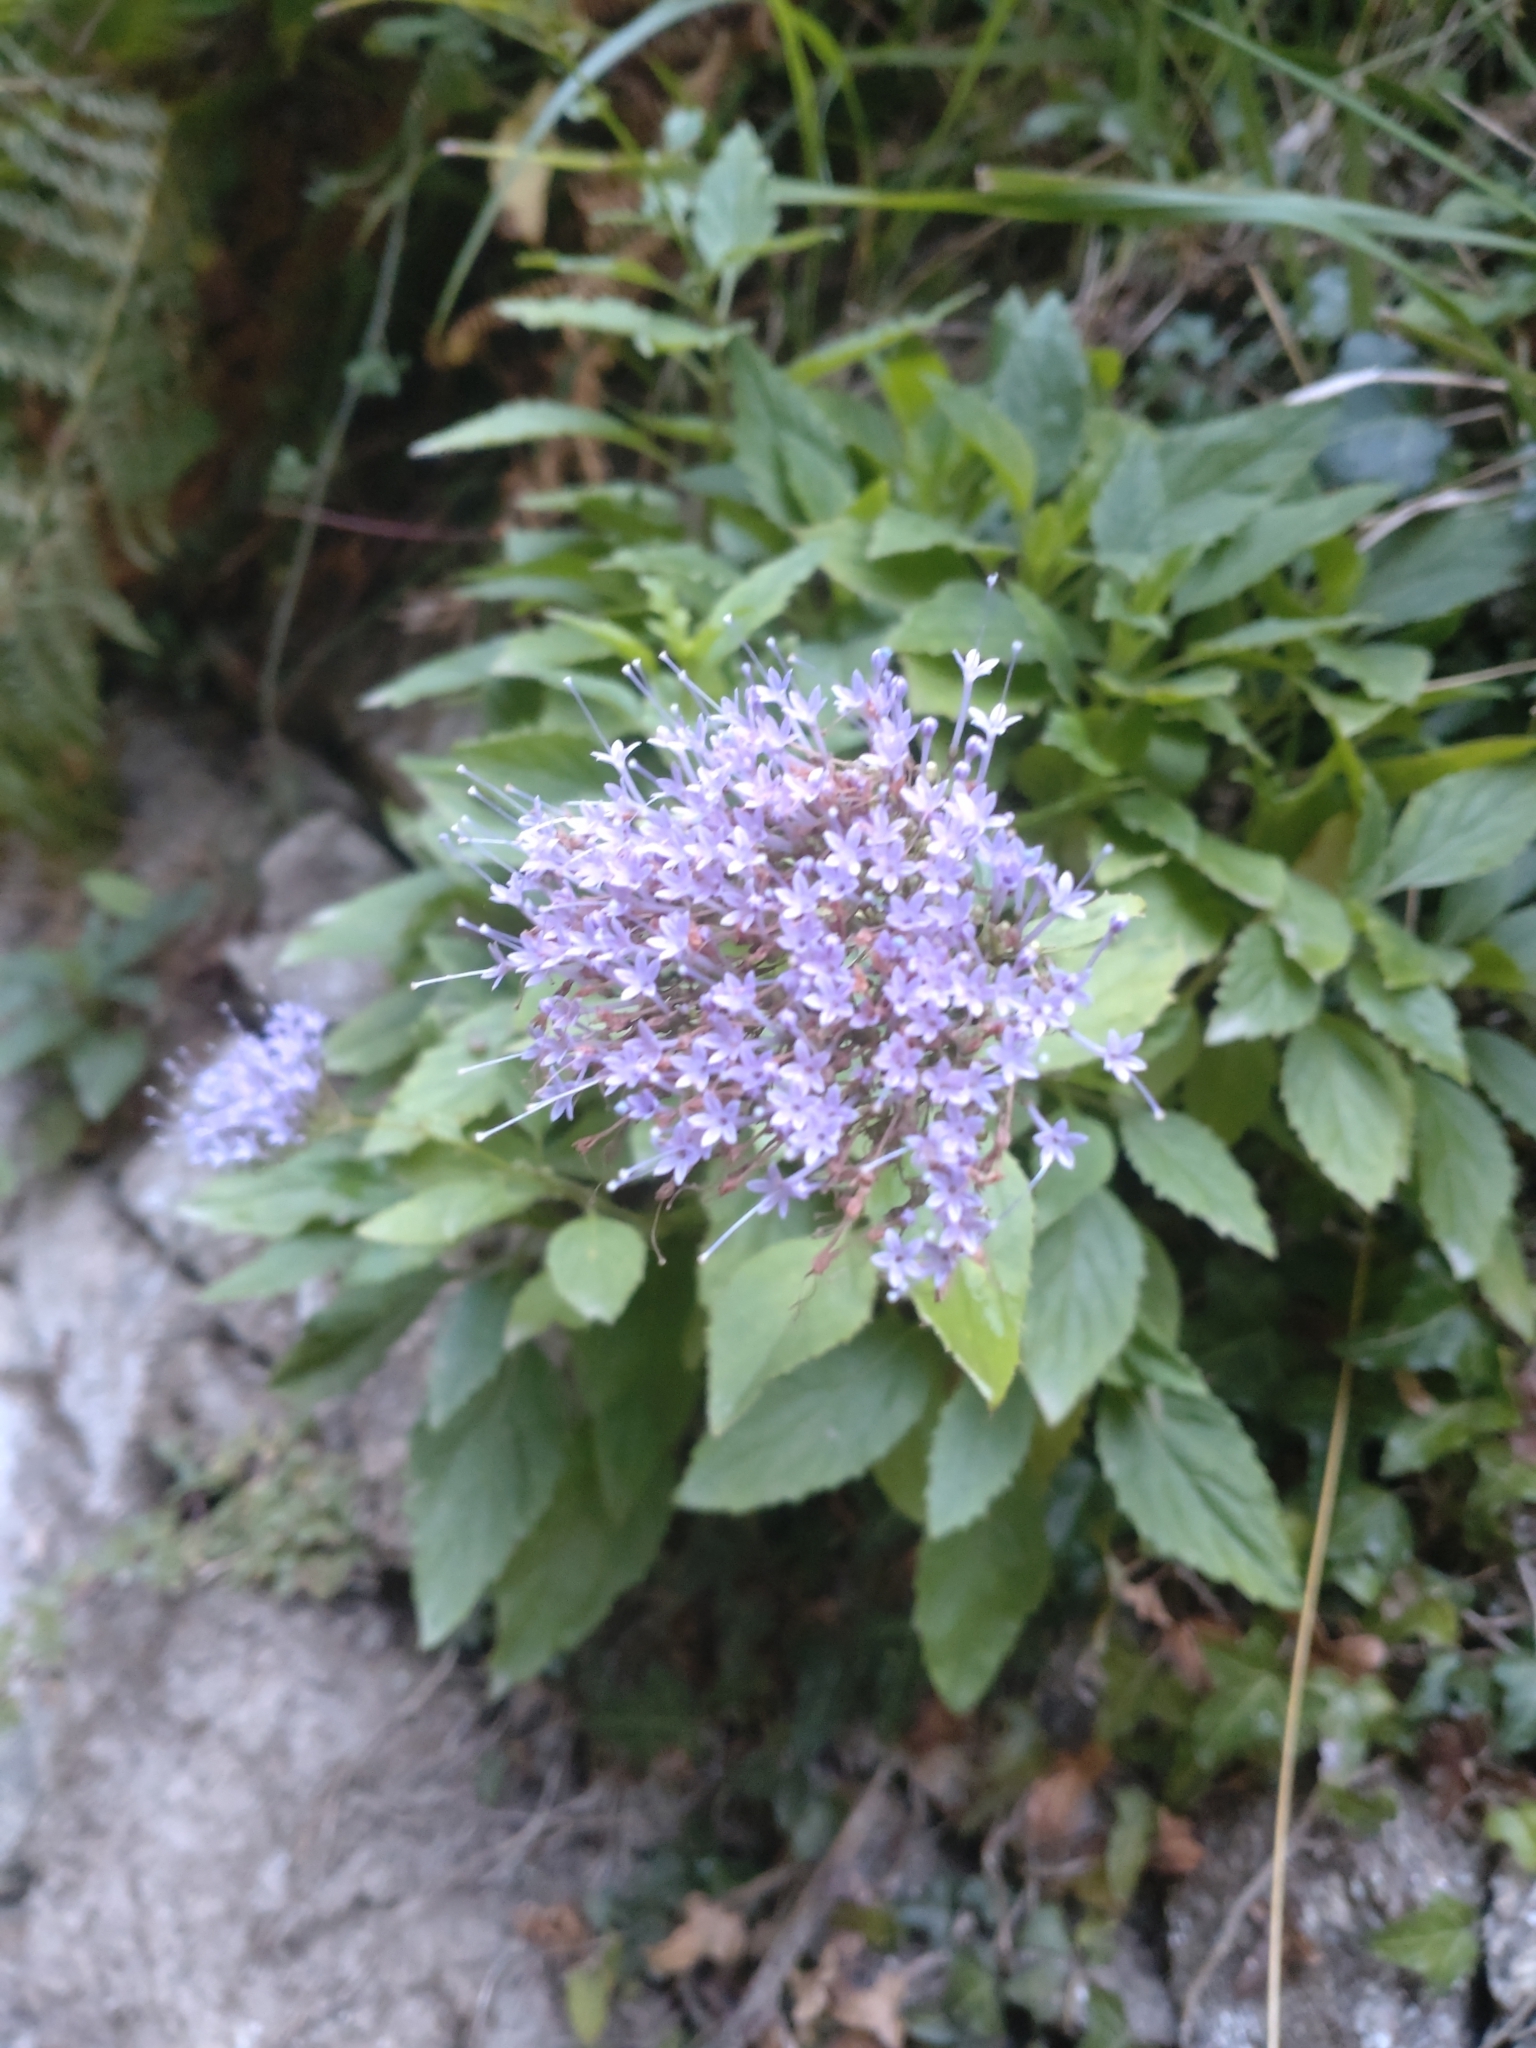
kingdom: Plantae
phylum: Tracheophyta
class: Magnoliopsida
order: Asterales
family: Campanulaceae
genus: Trachelium
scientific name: Trachelium caeruleum
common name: Throatwort
